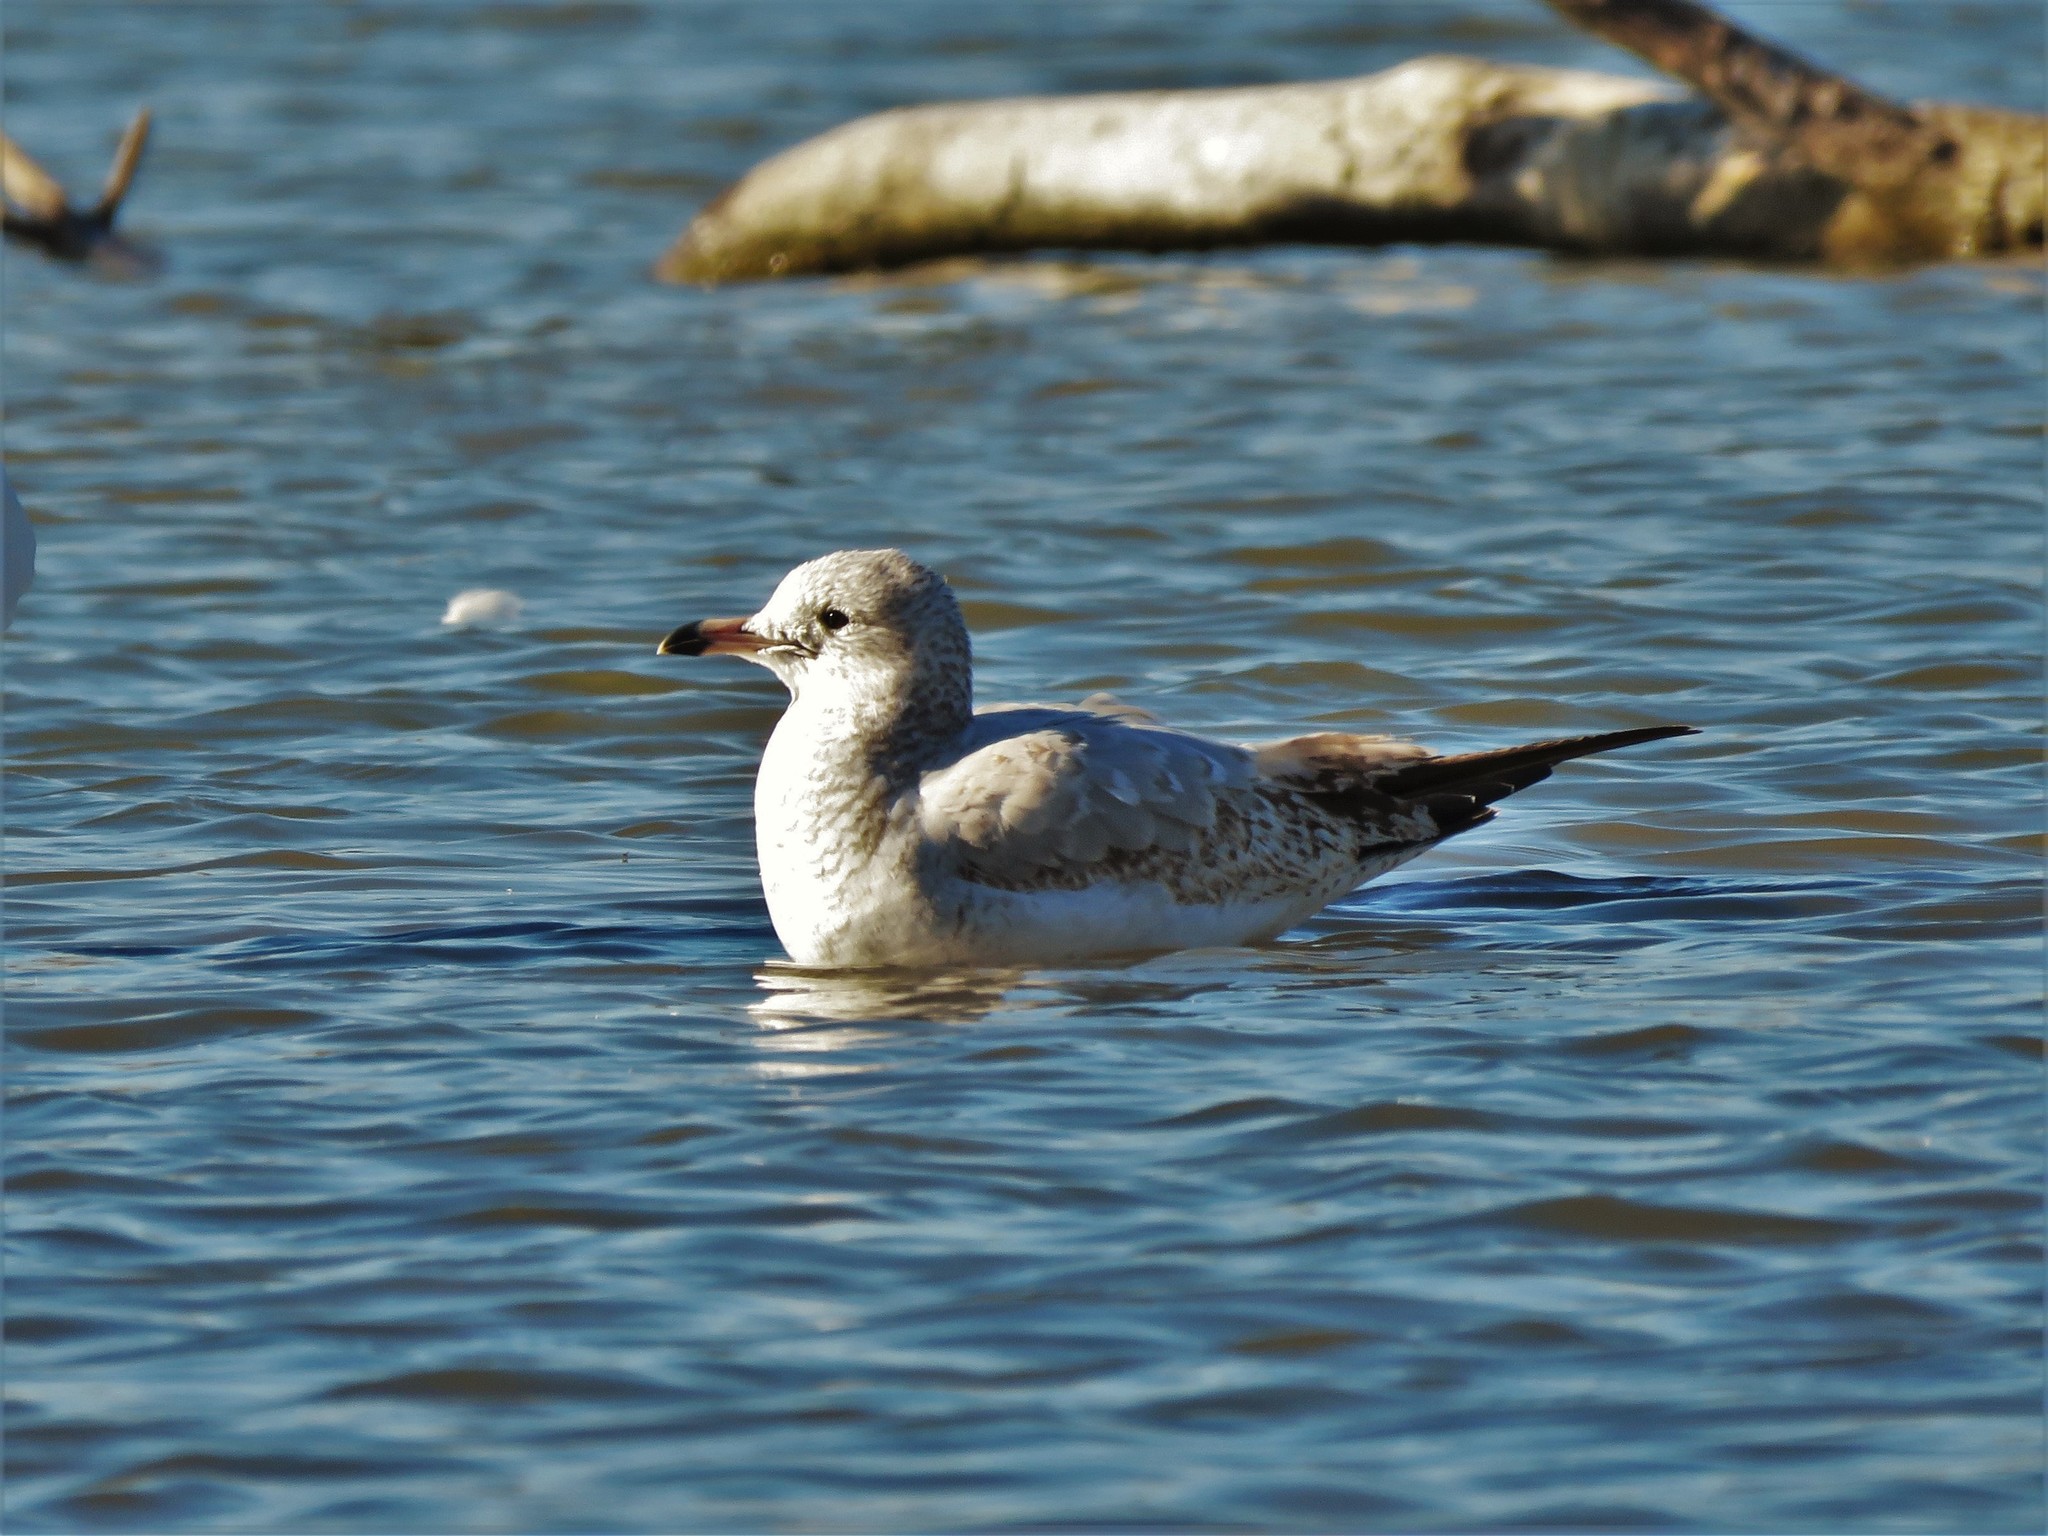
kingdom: Animalia
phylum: Chordata
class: Aves
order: Charadriiformes
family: Laridae
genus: Larus
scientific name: Larus delawarensis
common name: Ring-billed gull
